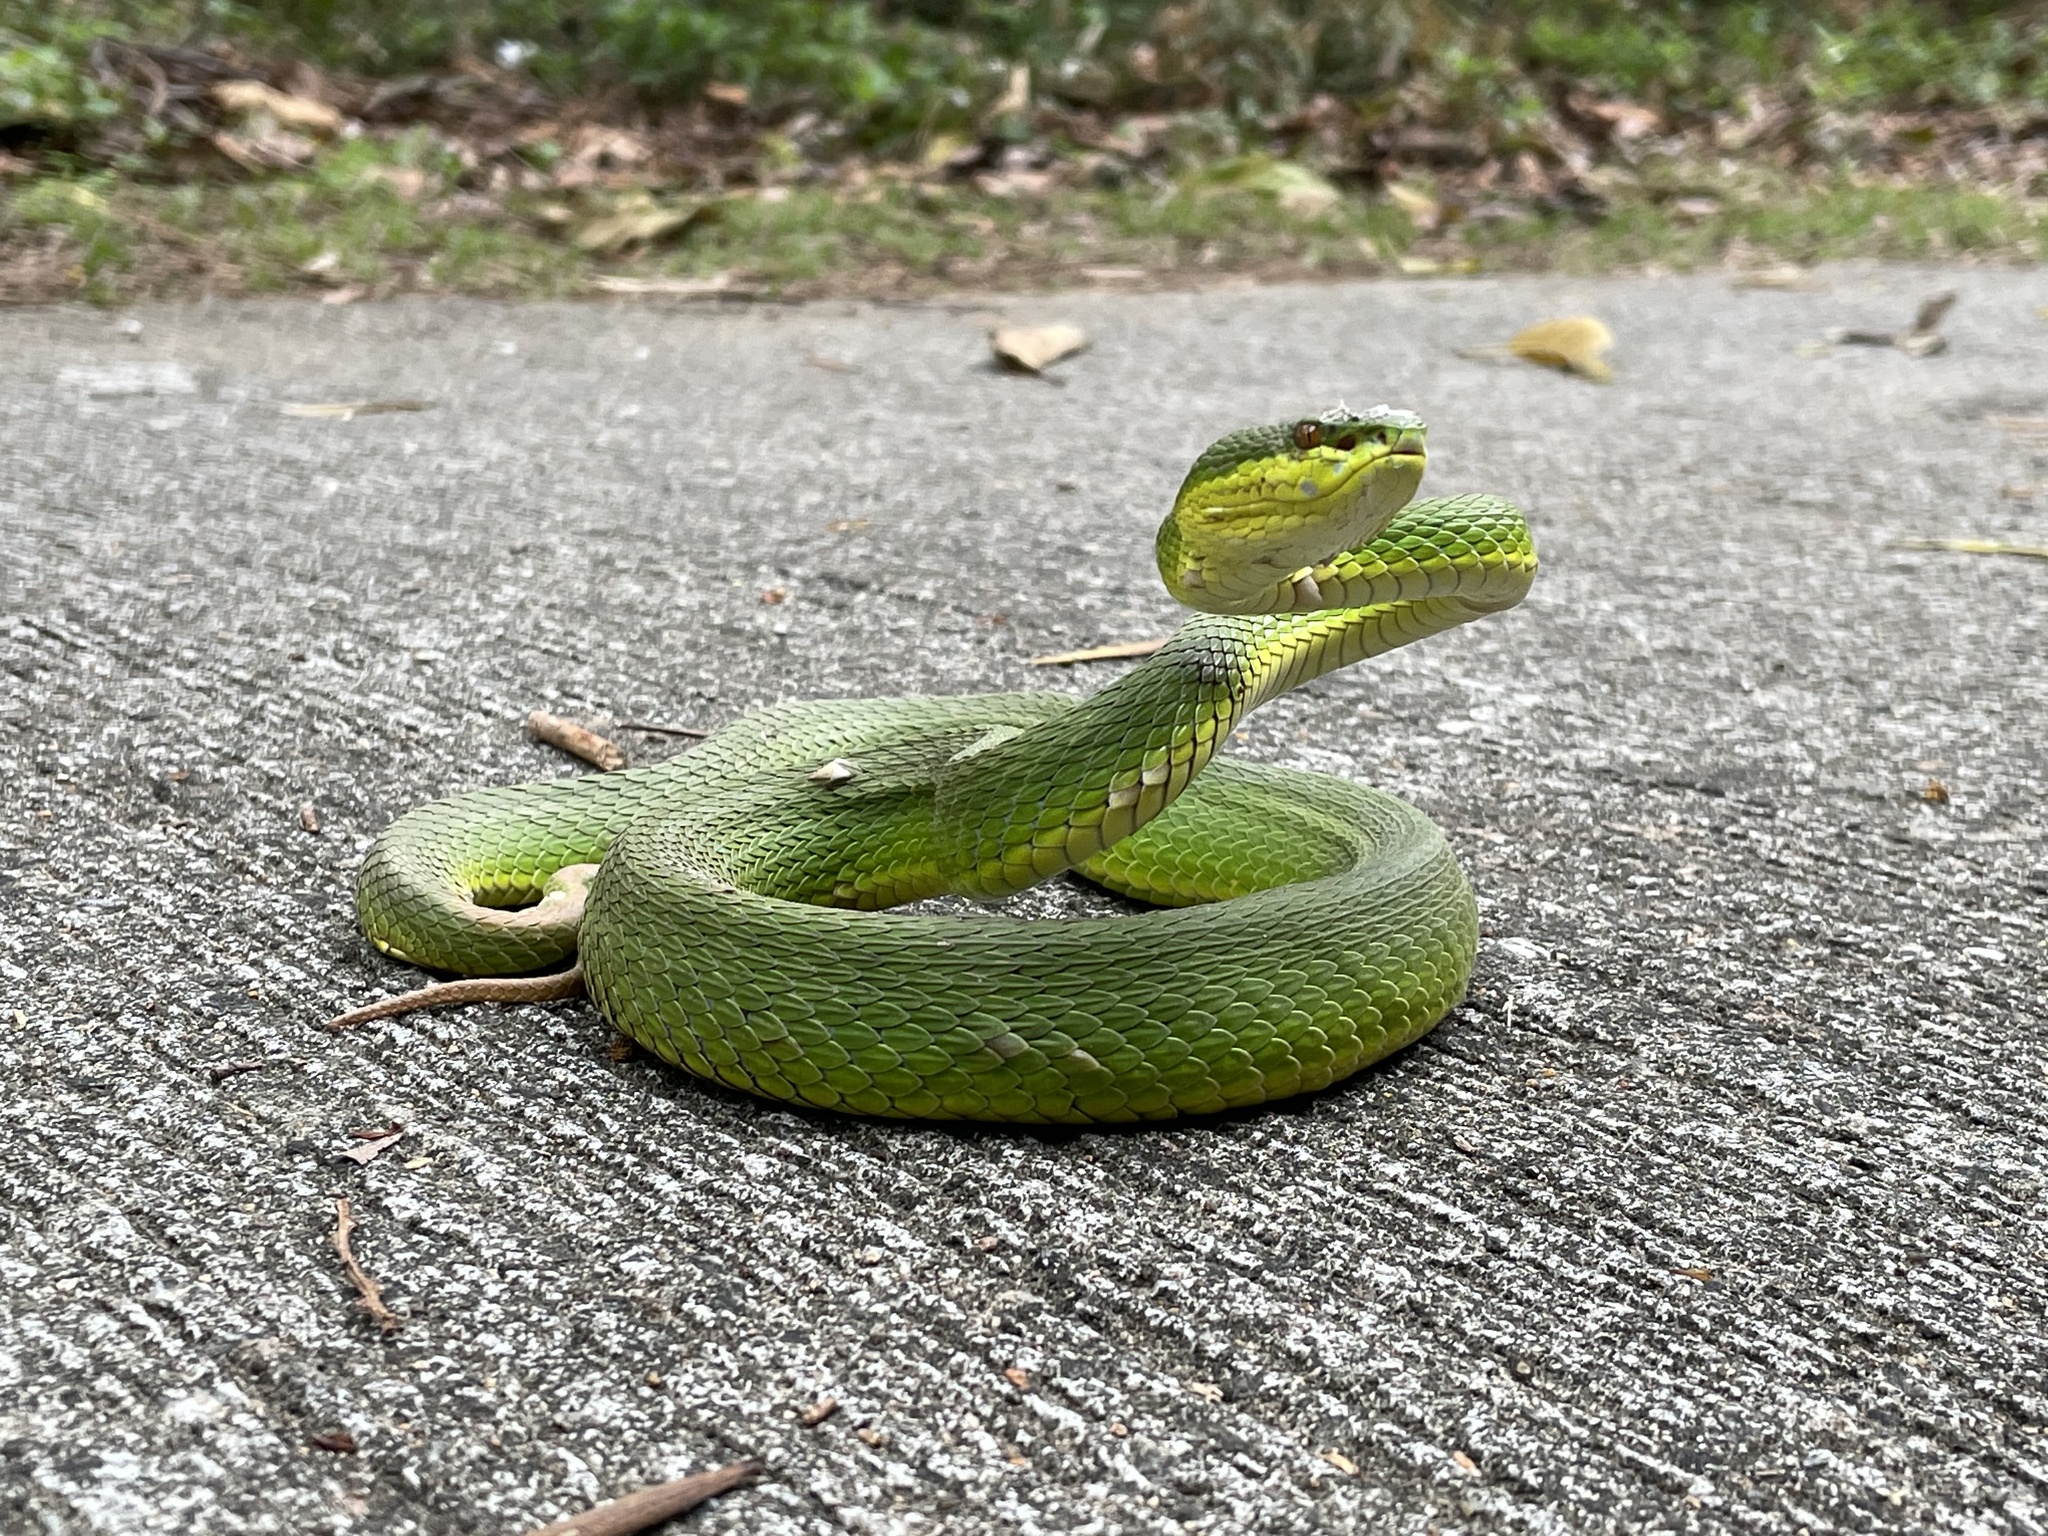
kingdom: Animalia
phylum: Chordata
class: Squamata
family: Viperidae
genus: Trimeresurus
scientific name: Trimeresurus albolabris
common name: White-lipped pitviper
